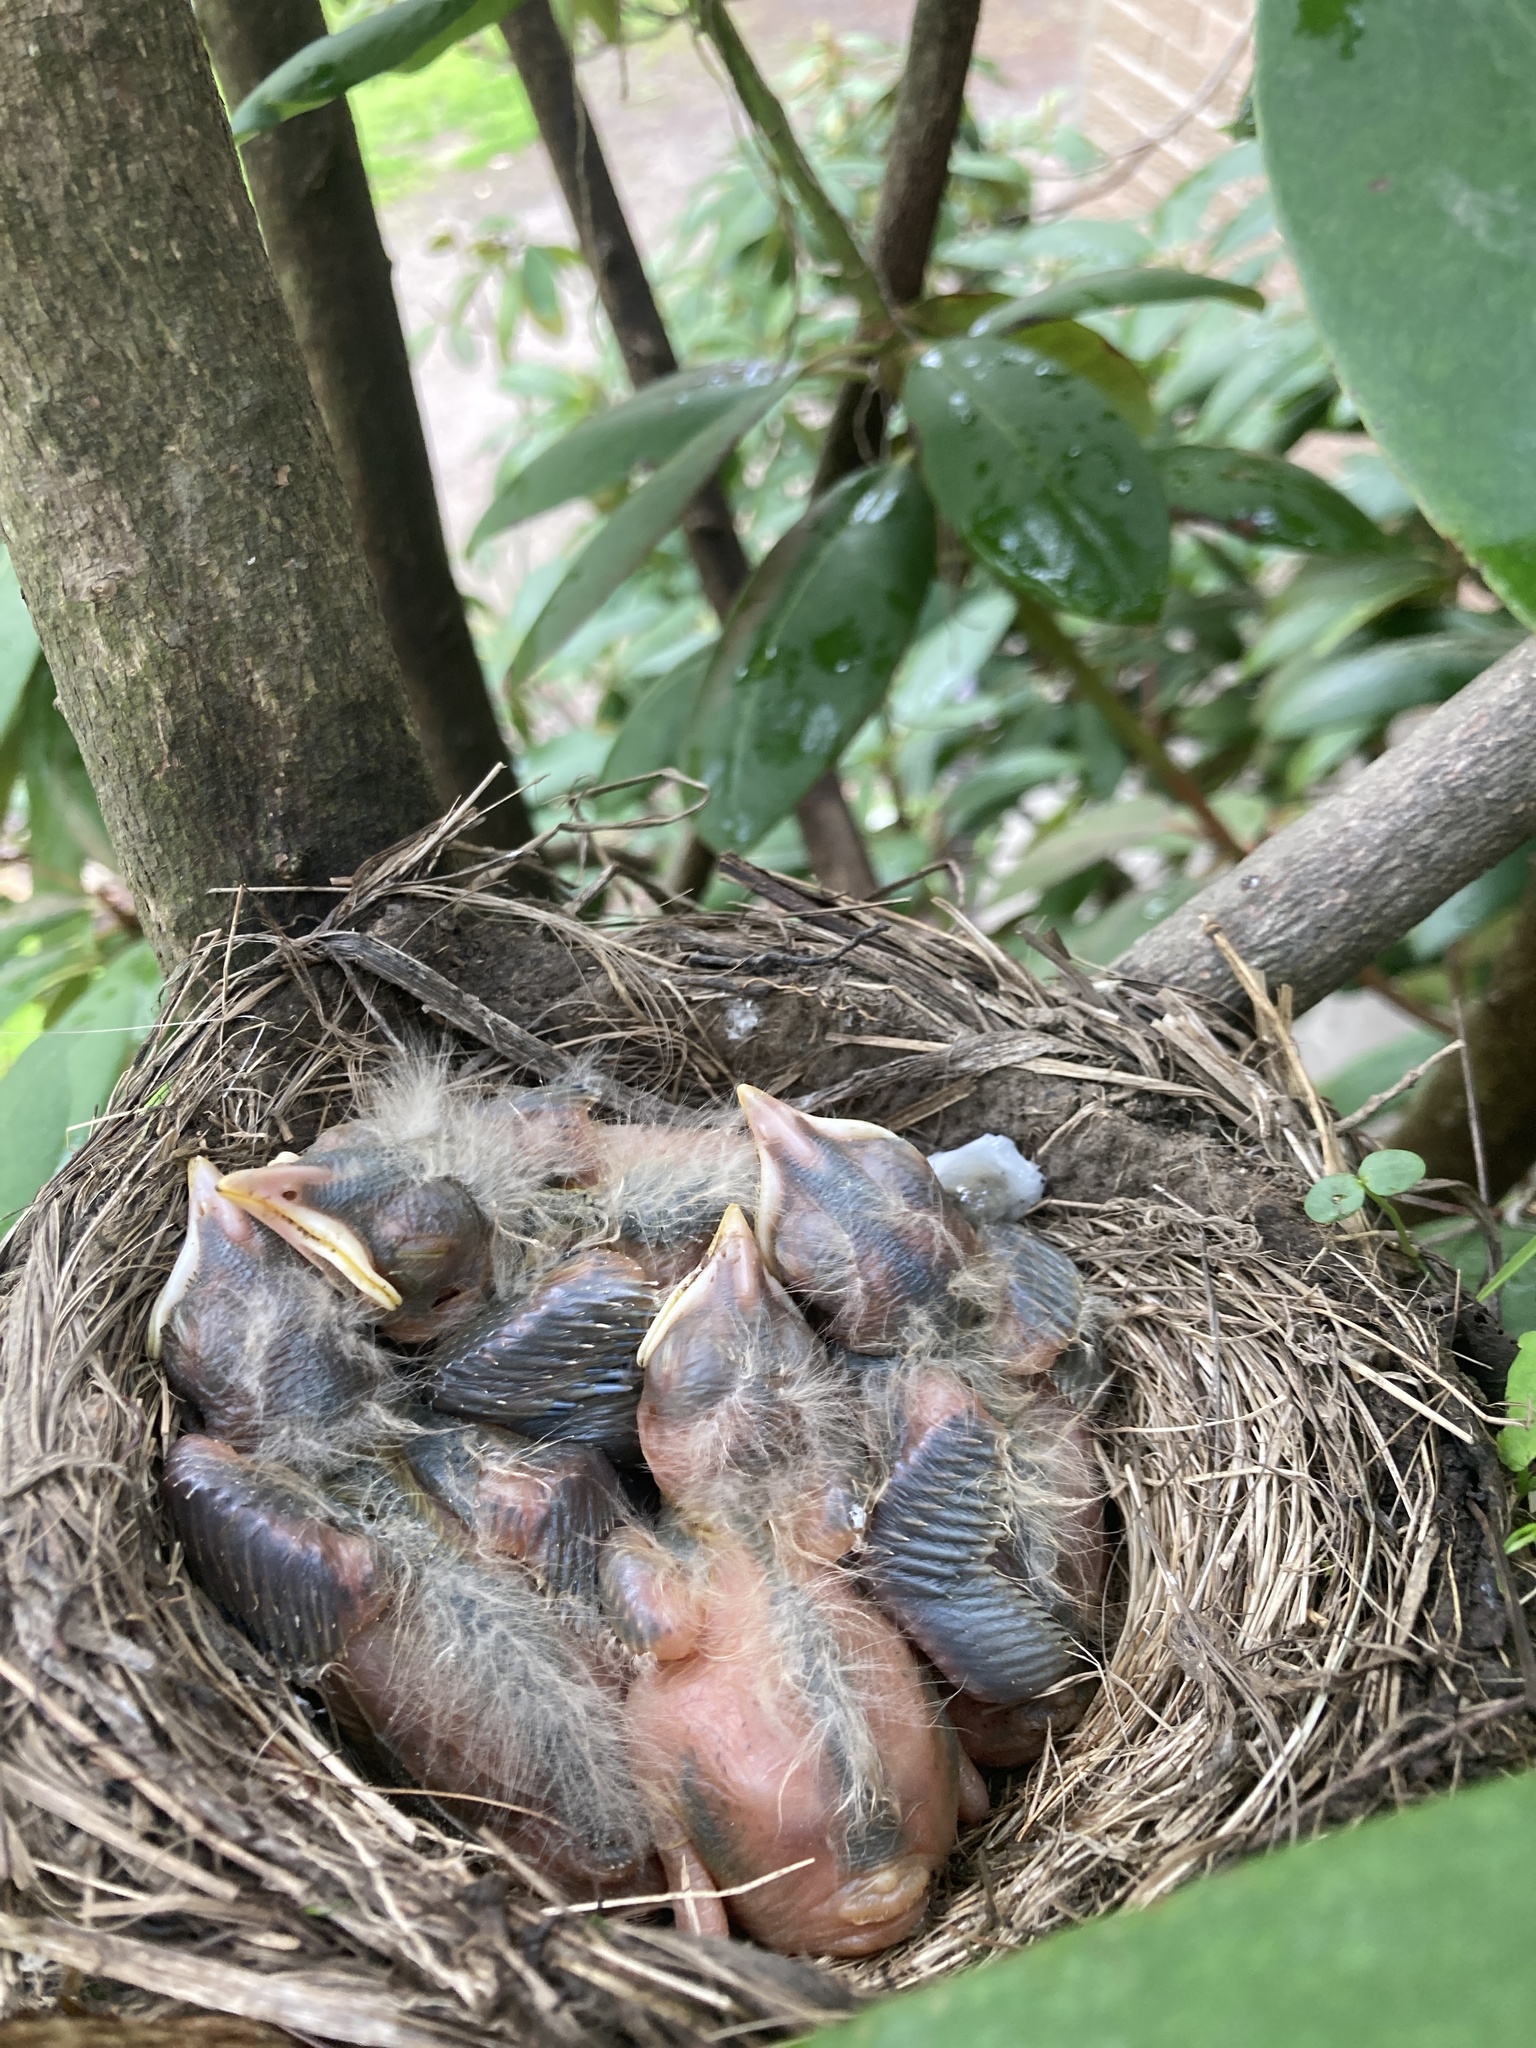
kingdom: Animalia
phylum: Chordata
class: Aves
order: Passeriformes
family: Turdidae
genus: Turdus
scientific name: Turdus migratorius
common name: American robin
